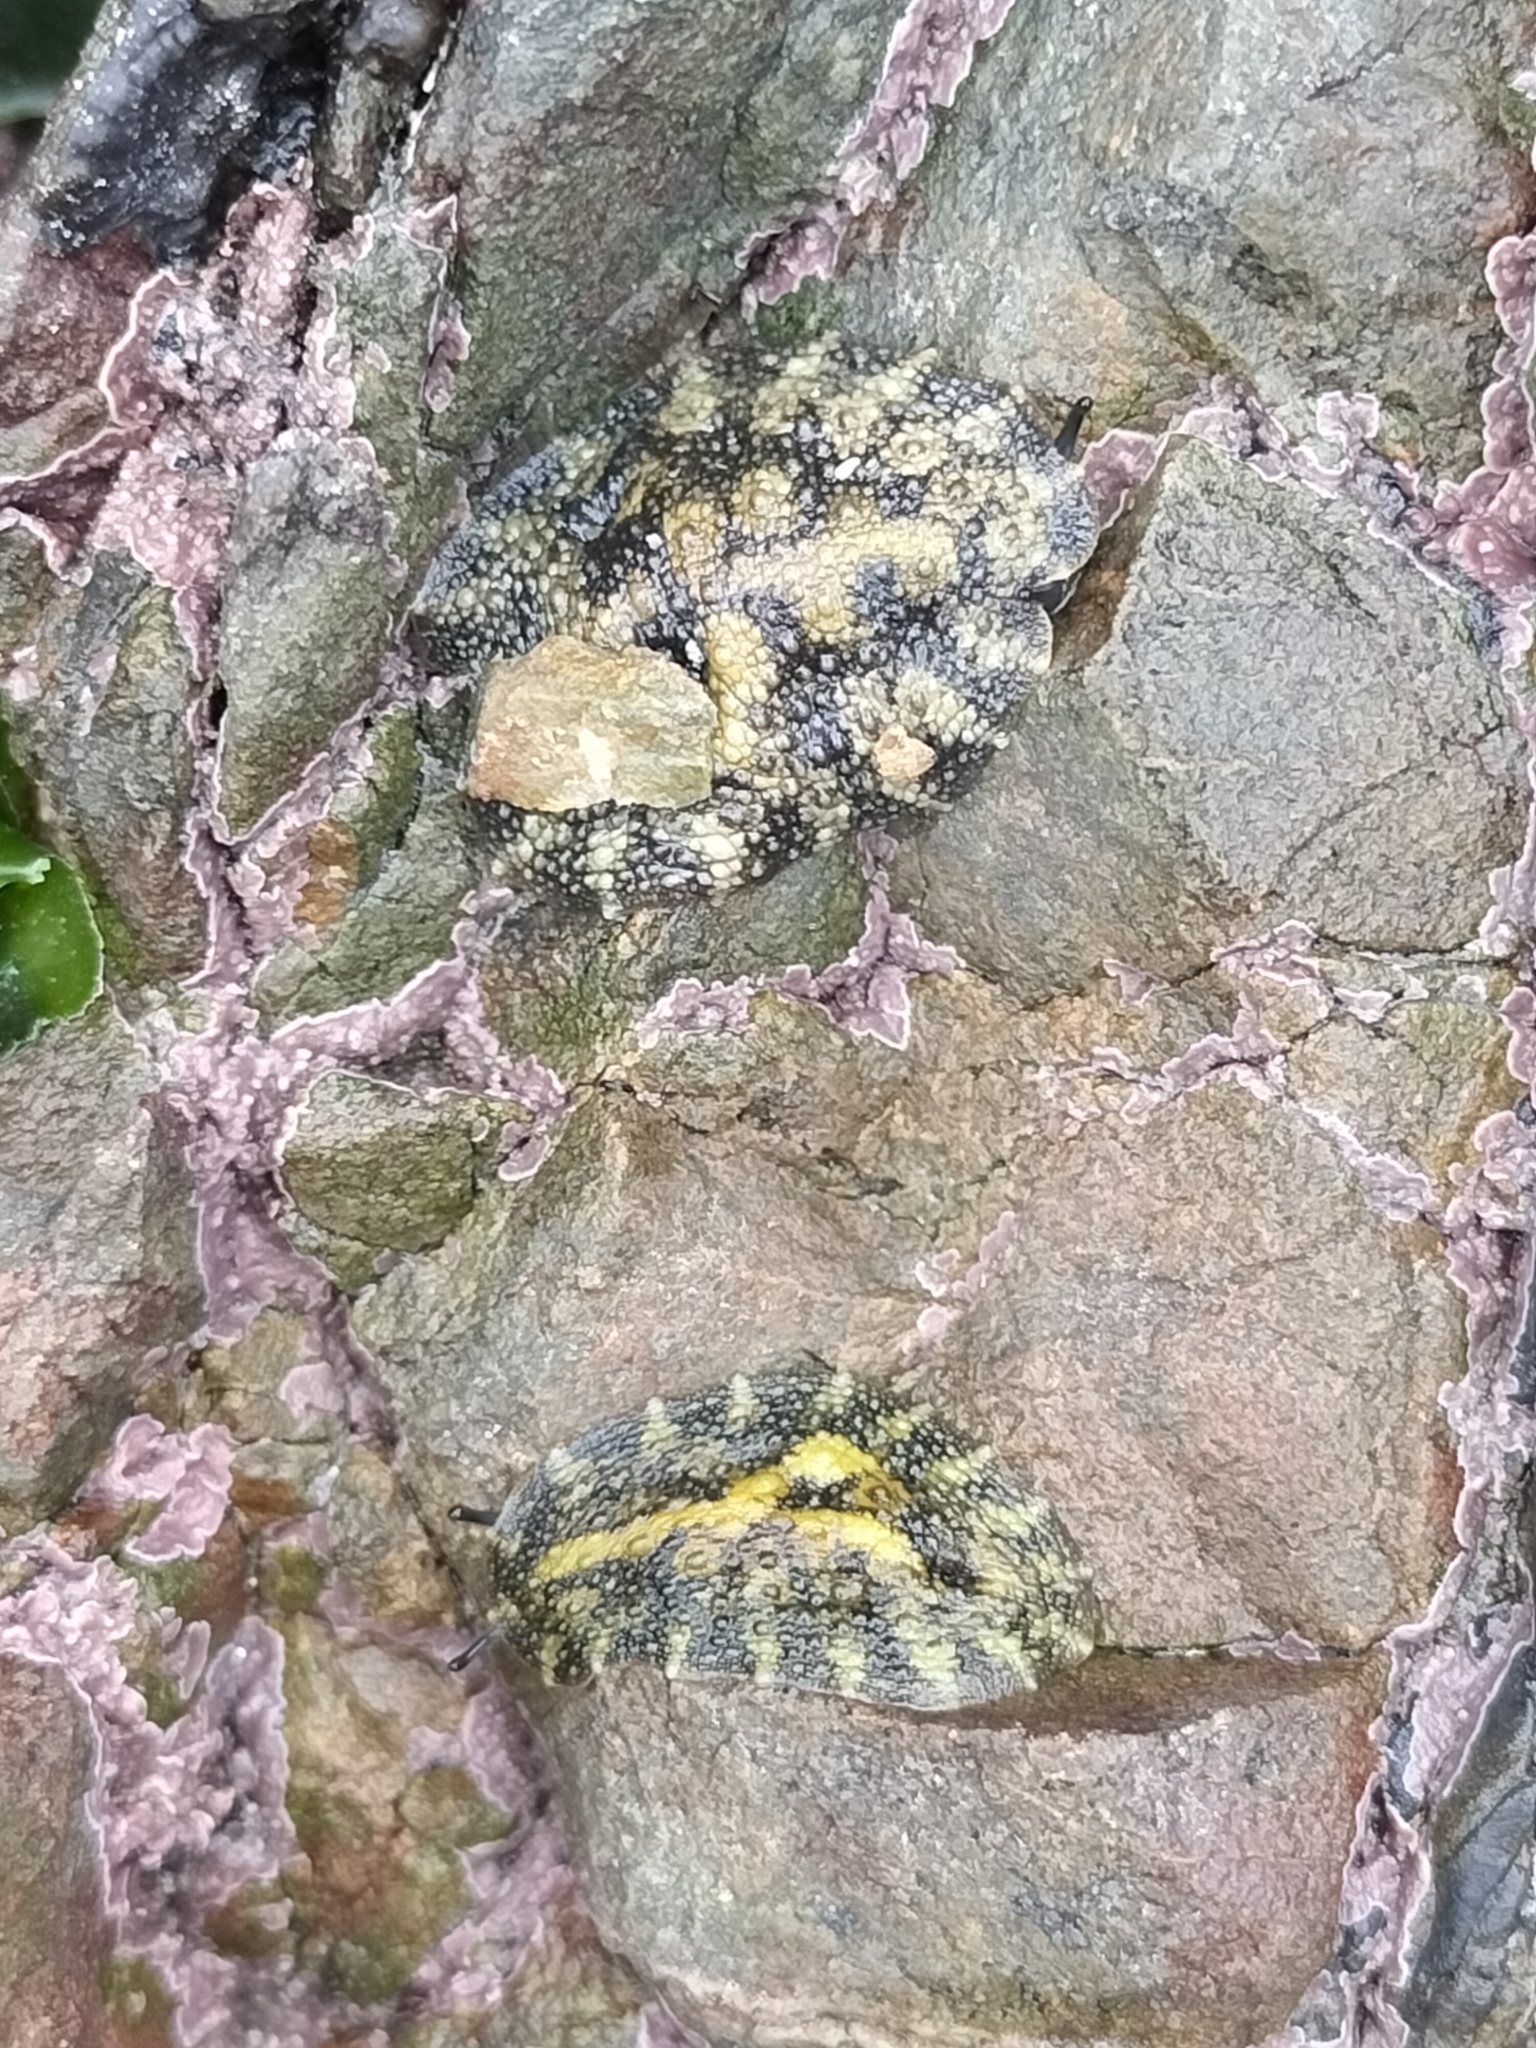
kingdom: Animalia
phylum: Mollusca
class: Gastropoda
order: Systellommatophora
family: Onchidiidae
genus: Onchidella
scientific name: Onchidella nigricans
